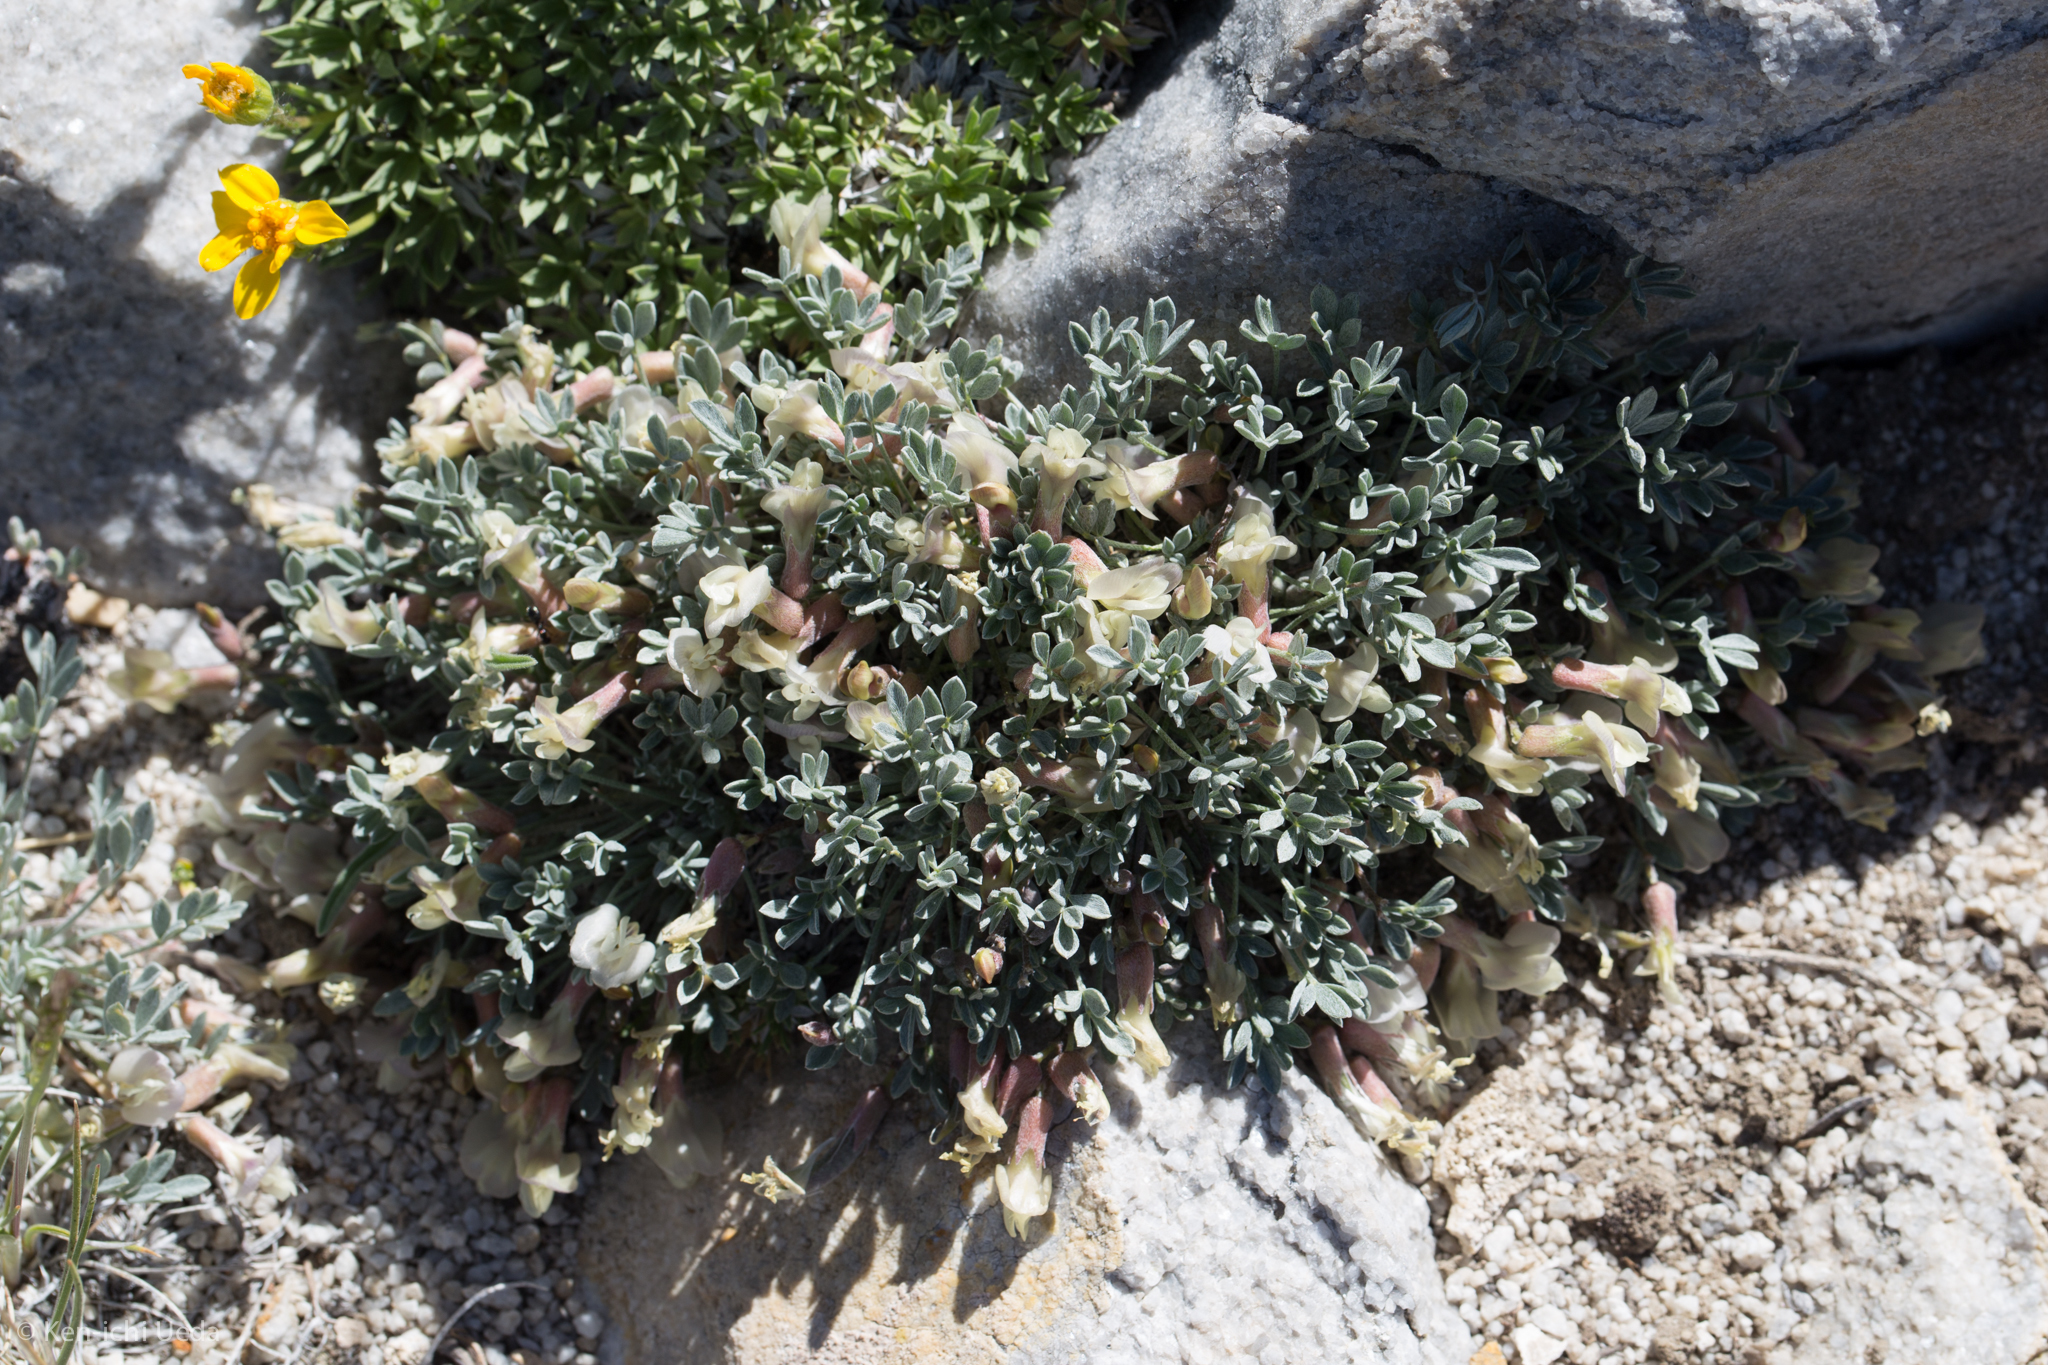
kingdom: Plantae
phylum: Tracheophyta
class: Magnoliopsida
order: Fabales
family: Fabaceae
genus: Astragalus
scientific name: Astragalus calycosus
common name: King's milkvetch
